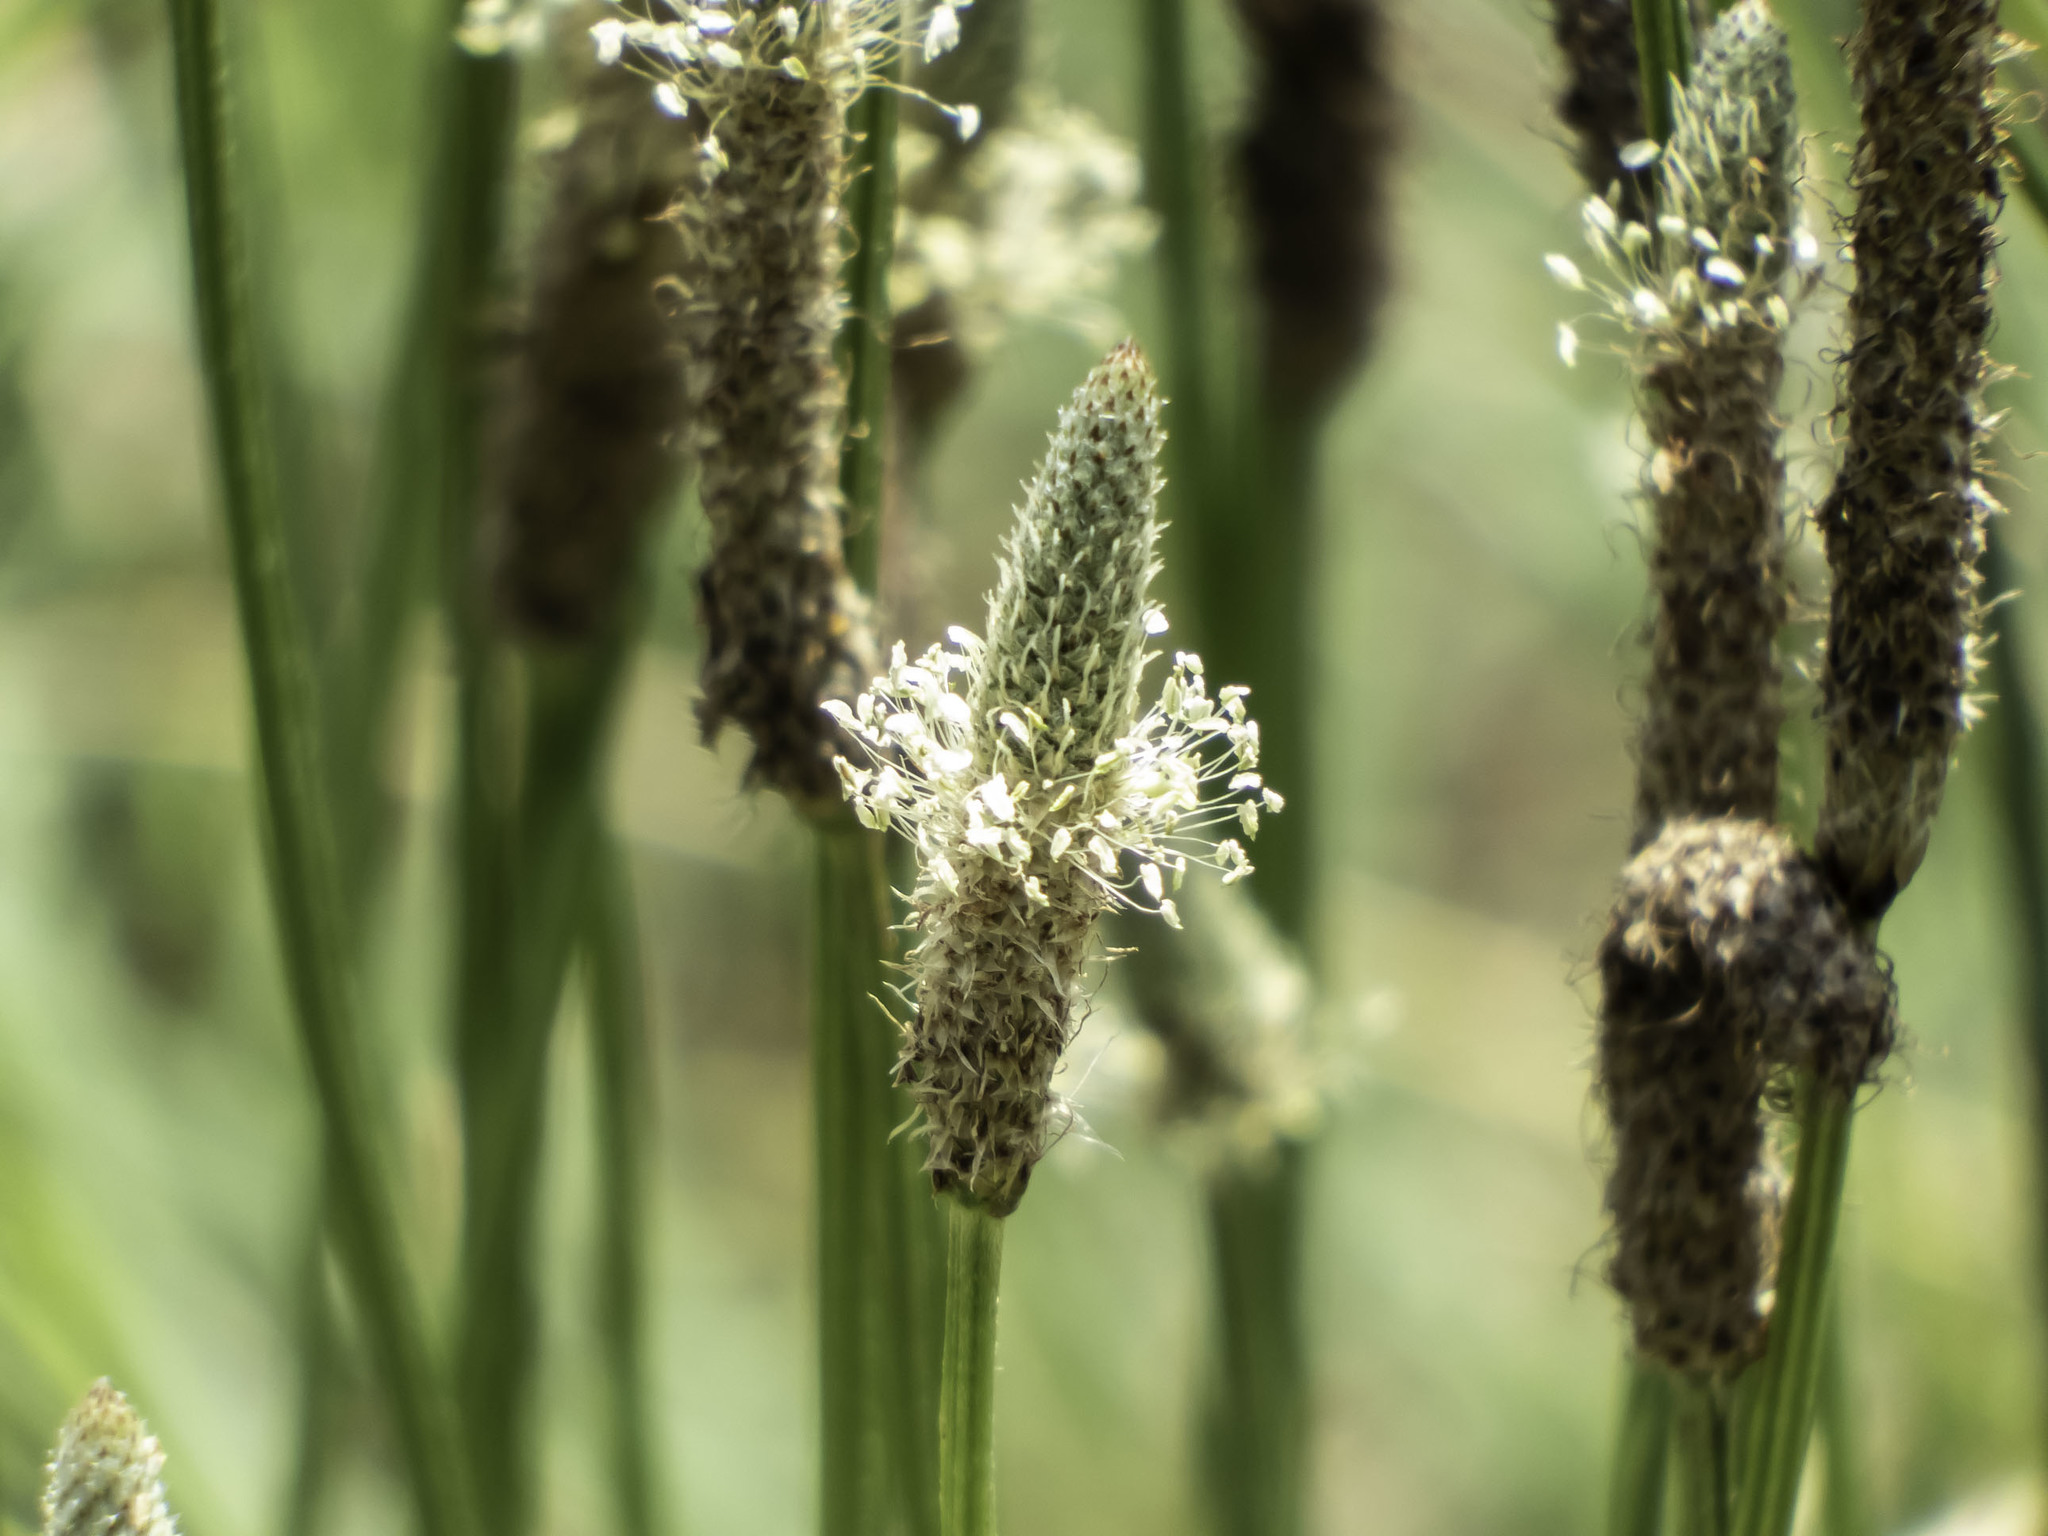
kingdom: Plantae
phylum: Tracheophyta
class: Magnoliopsida
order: Lamiales
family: Plantaginaceae
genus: Plantago
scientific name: Plantago lanceolata
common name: Ribwort plantain
